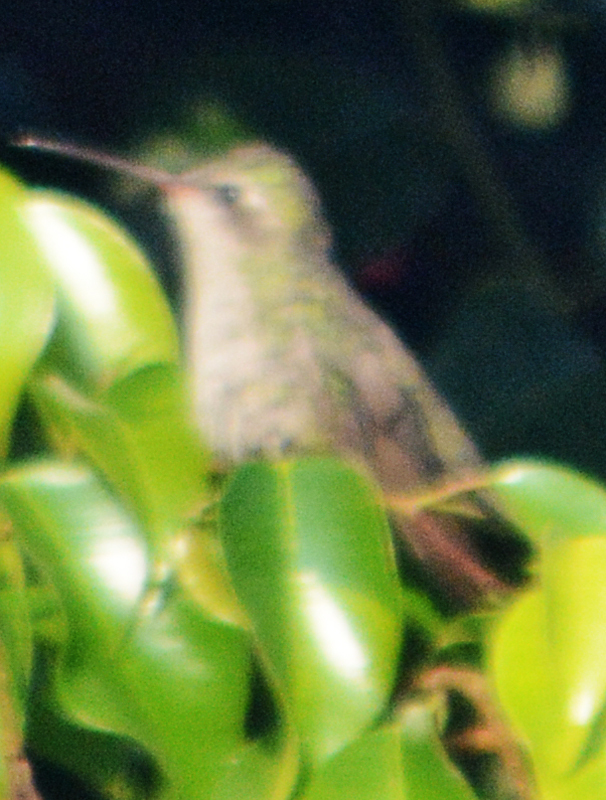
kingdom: Animalia
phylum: Chordata
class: Aves
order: Apodiformes
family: Trochilidae
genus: Cynanthus
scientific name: Cynanthus latirostris
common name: Broad-billed hummingbird
